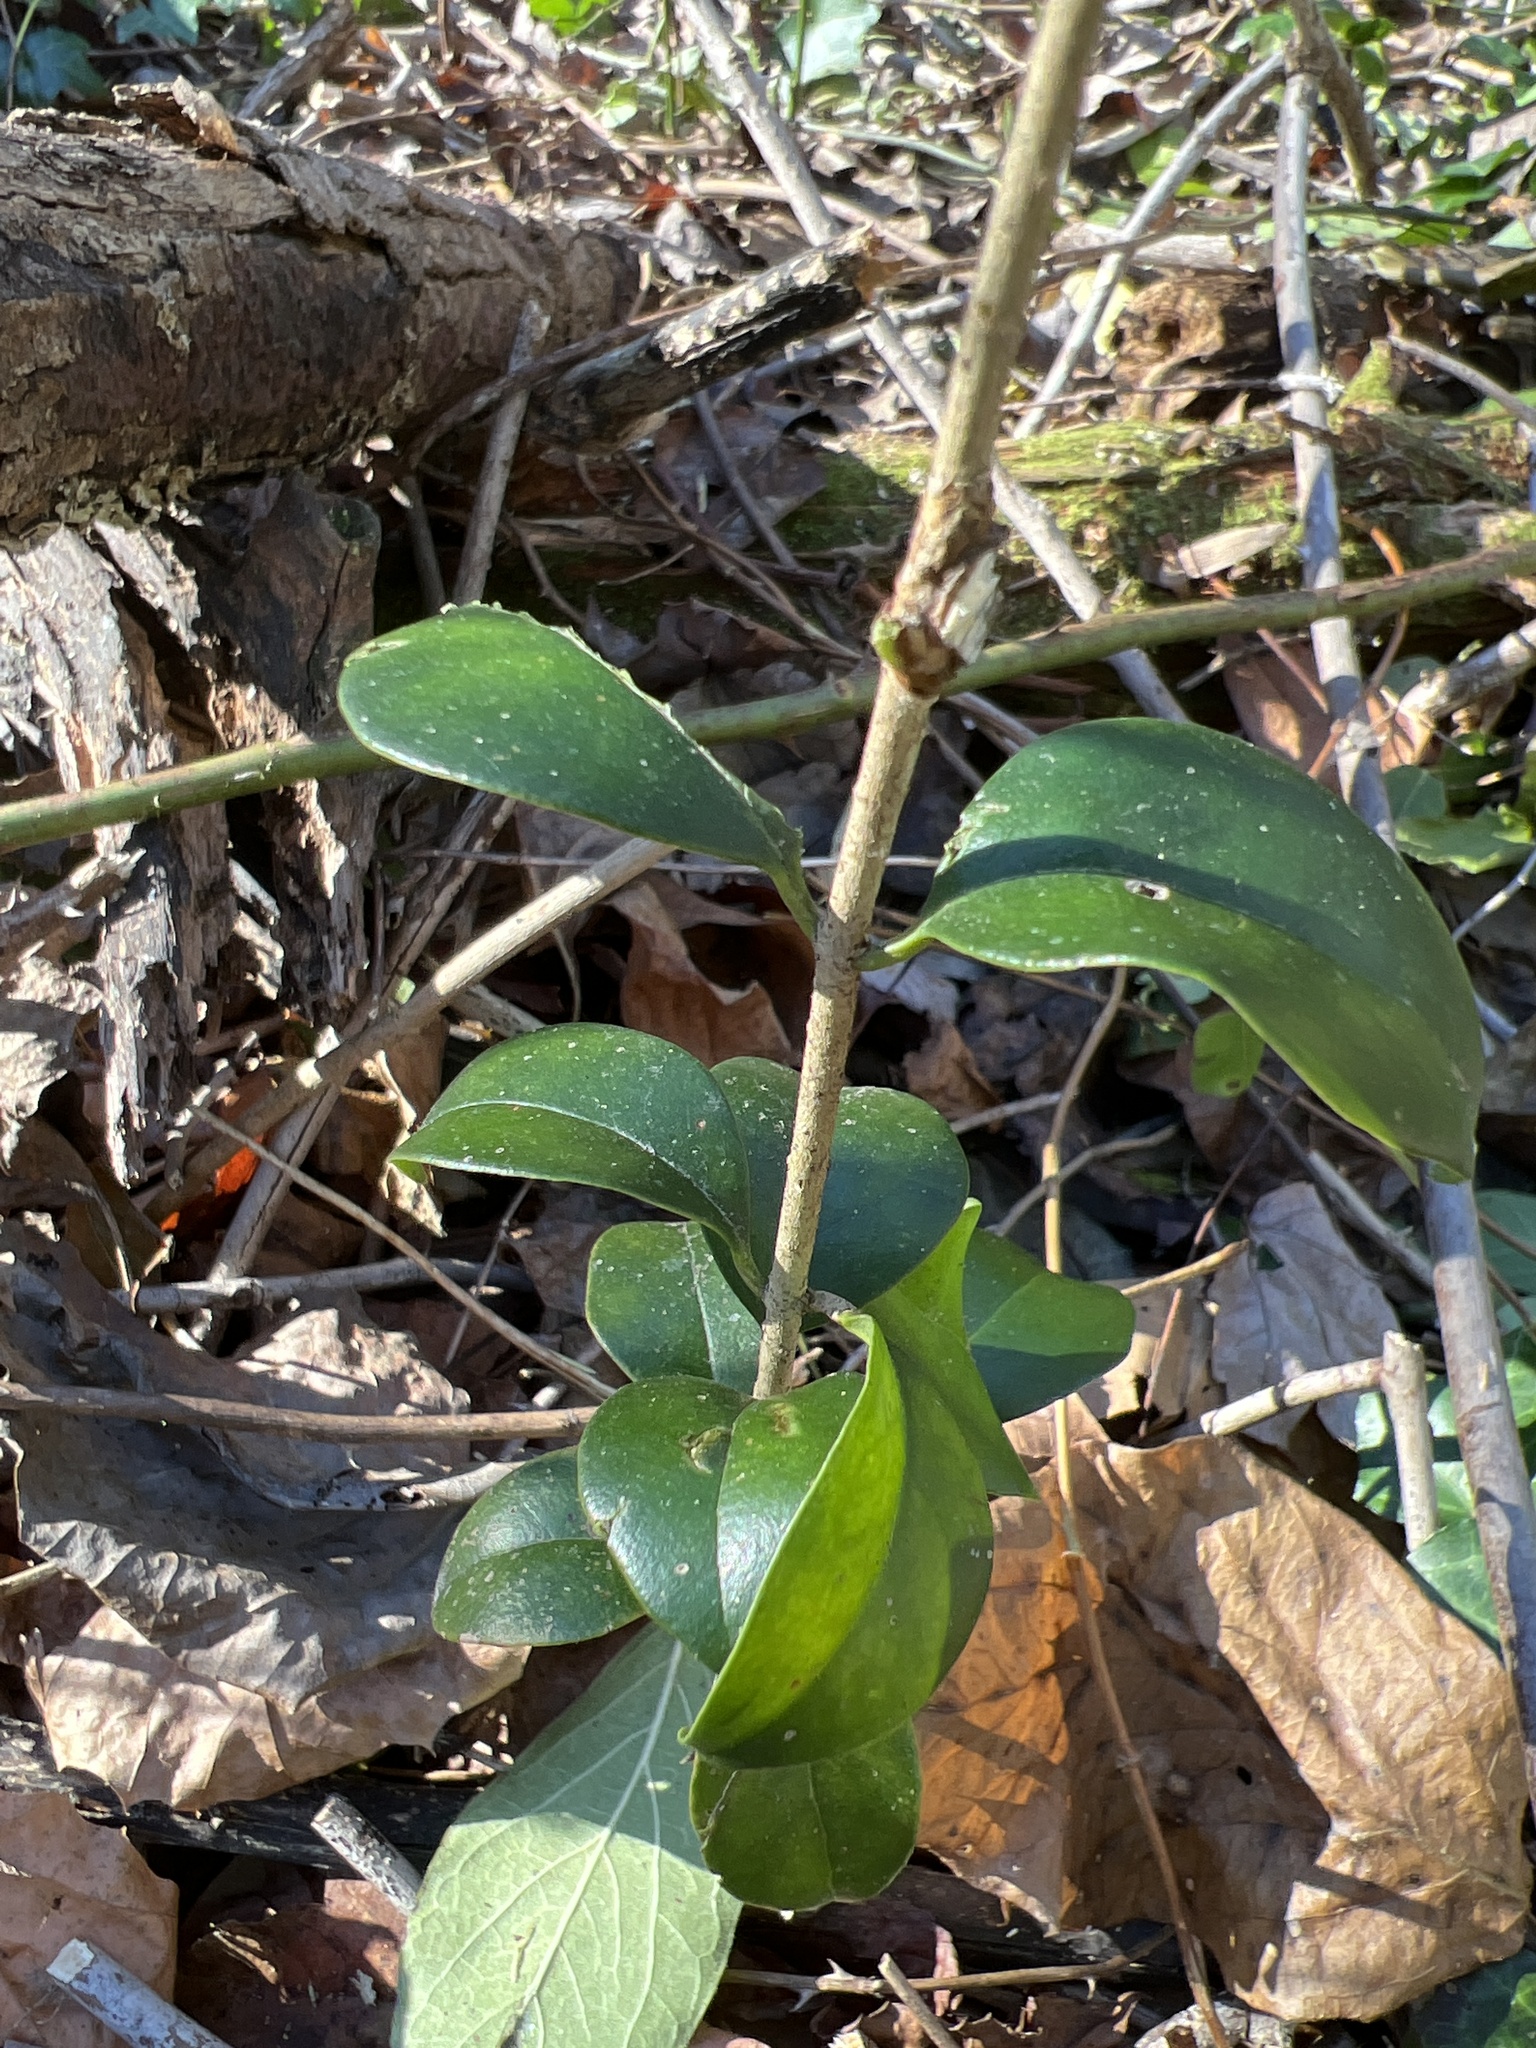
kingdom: Plantae
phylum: Tracheophyta
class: Magnoliopsida
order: Lamiales
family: Oleaceae
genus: Ligustrum
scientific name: Ligustrum
